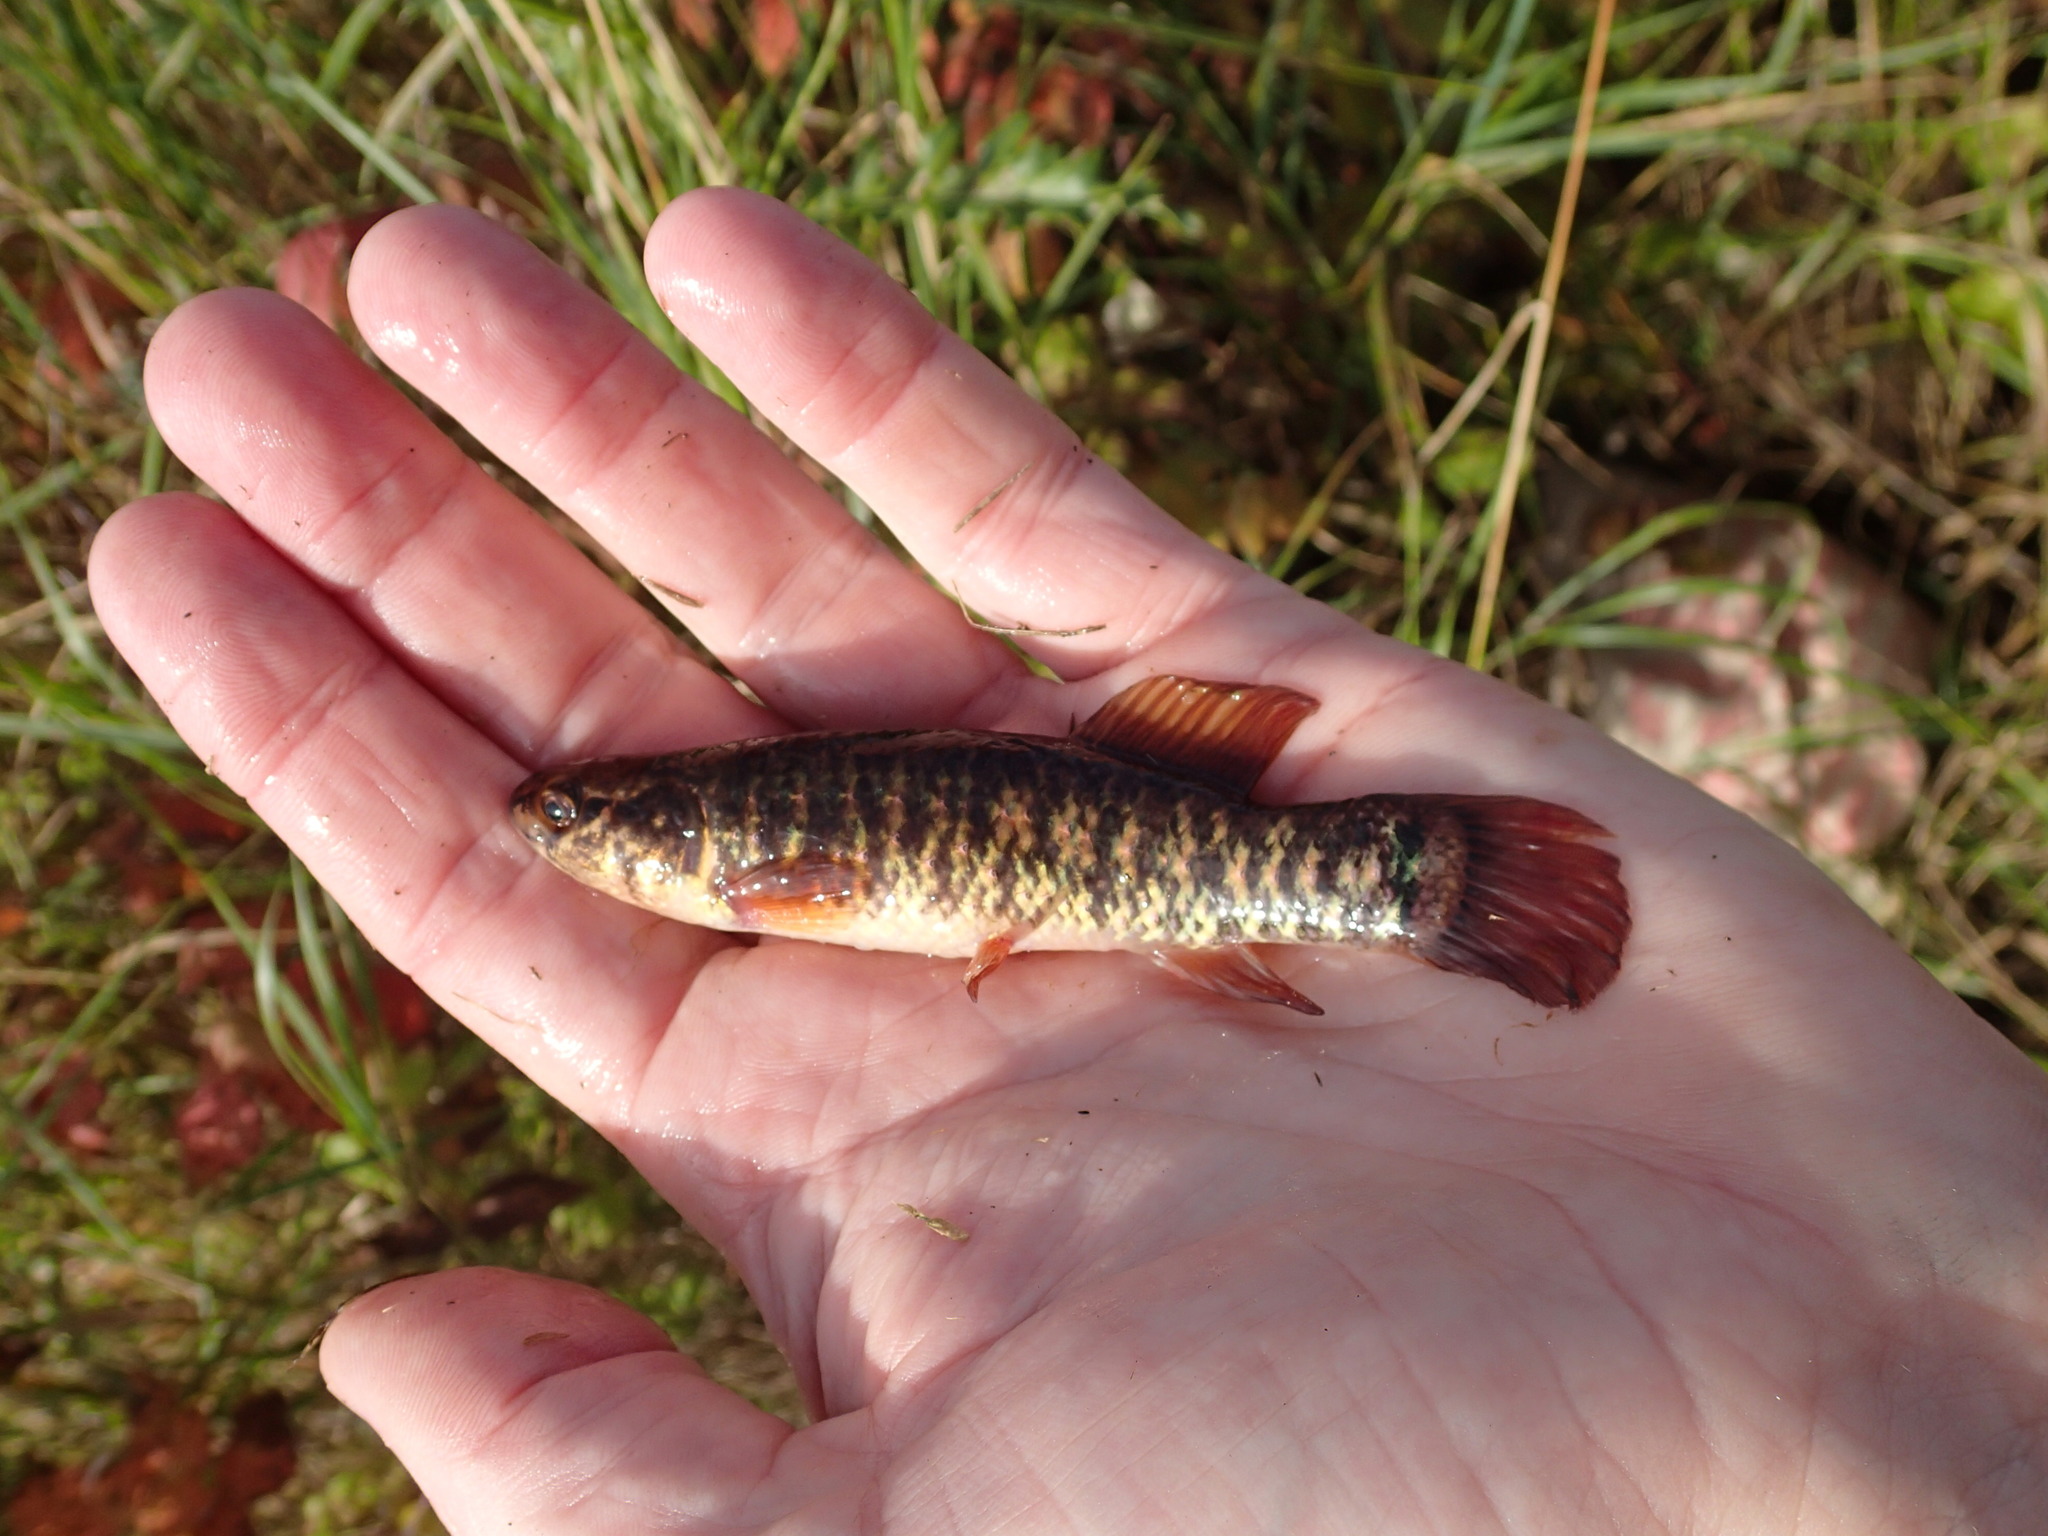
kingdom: Animalia
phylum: Chordata
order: Esociformes
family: Umbridae
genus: Umbra
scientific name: Umbra limi
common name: Central mudminnow
